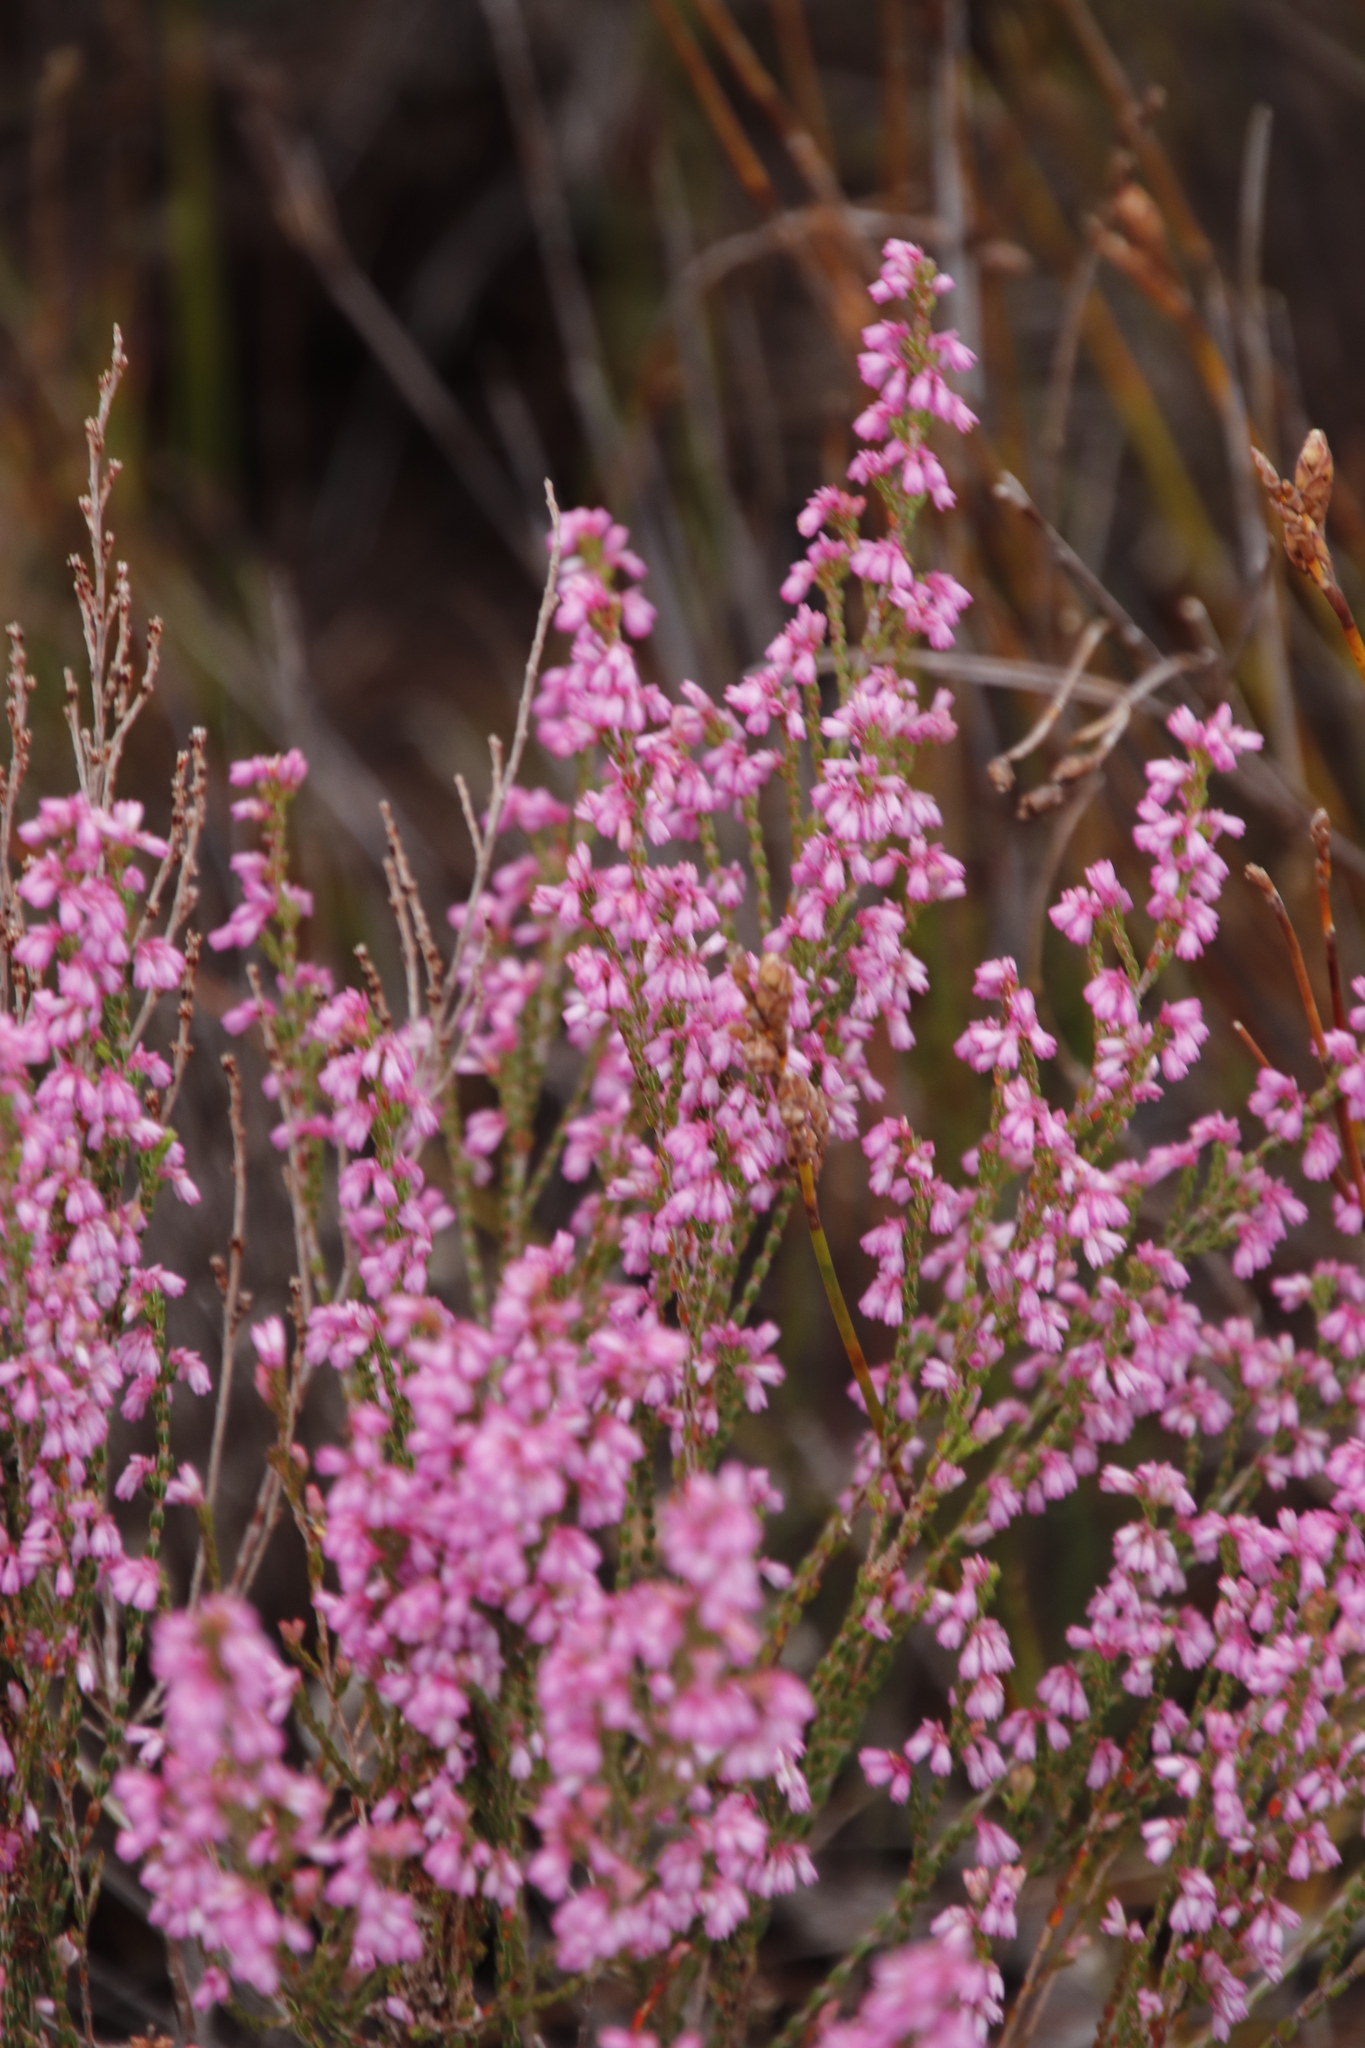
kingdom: Plantae
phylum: Tracheophyta
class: Magnoliopsida
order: Ericales
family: Ericaceae
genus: Erica
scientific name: Erica gnaphaloides
